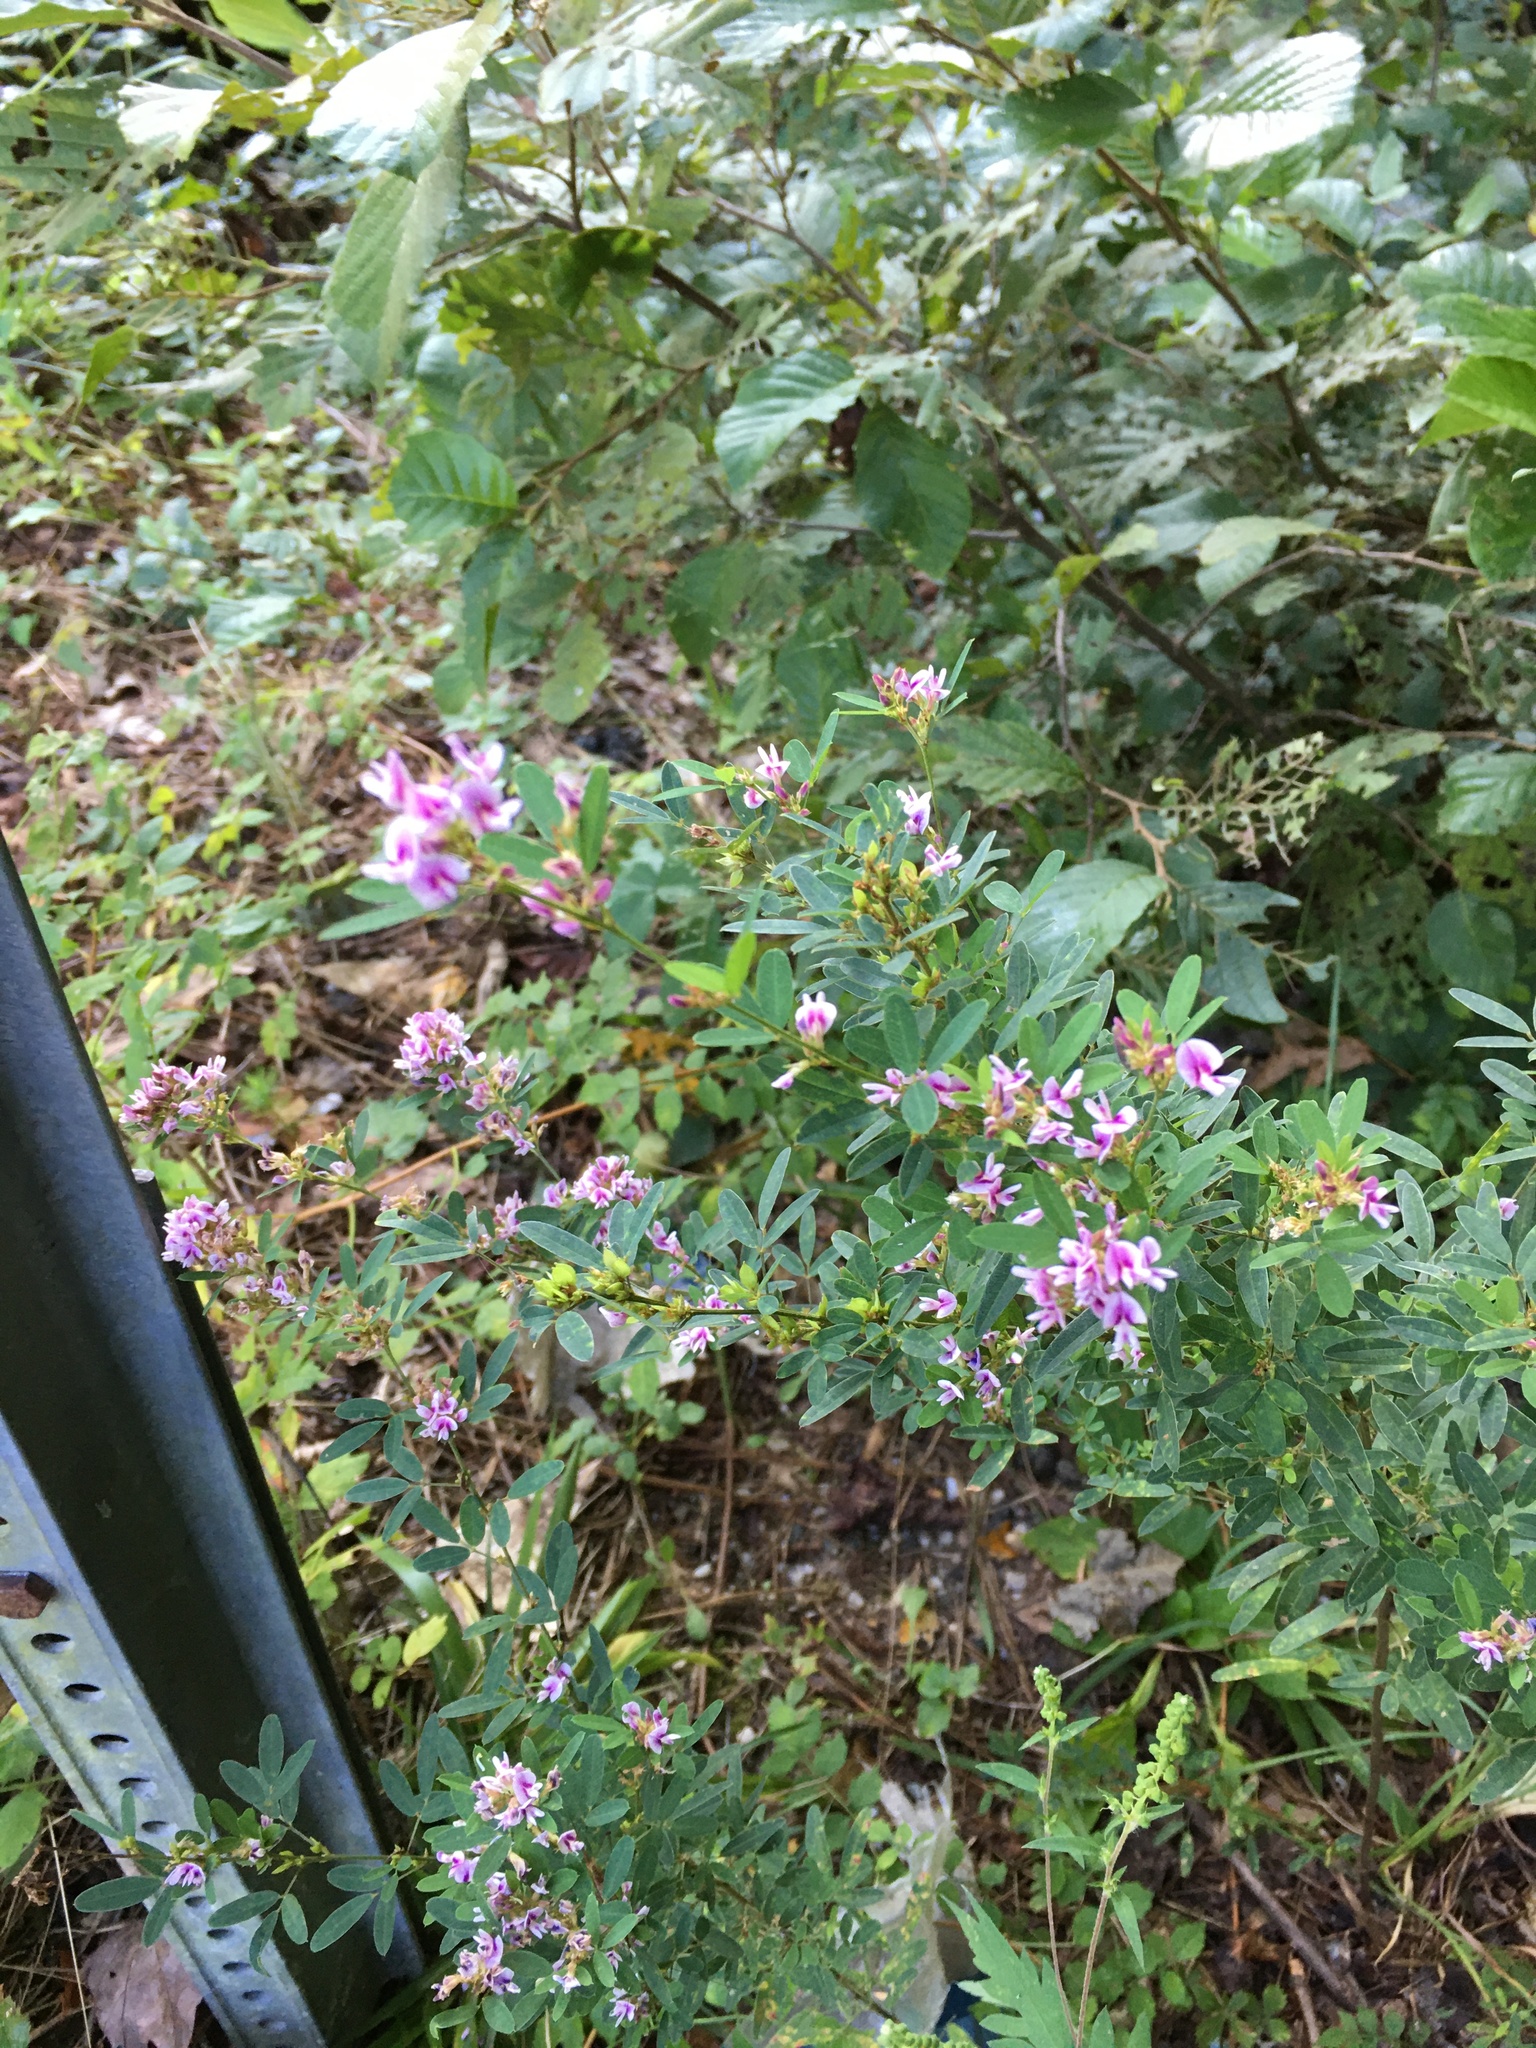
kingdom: Plantae
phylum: Tracheophyta
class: Magnoliopsida
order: Fabales
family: Fabaceae
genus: Lespedeza
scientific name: Lespedeza virginica
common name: Slender bush-clover
